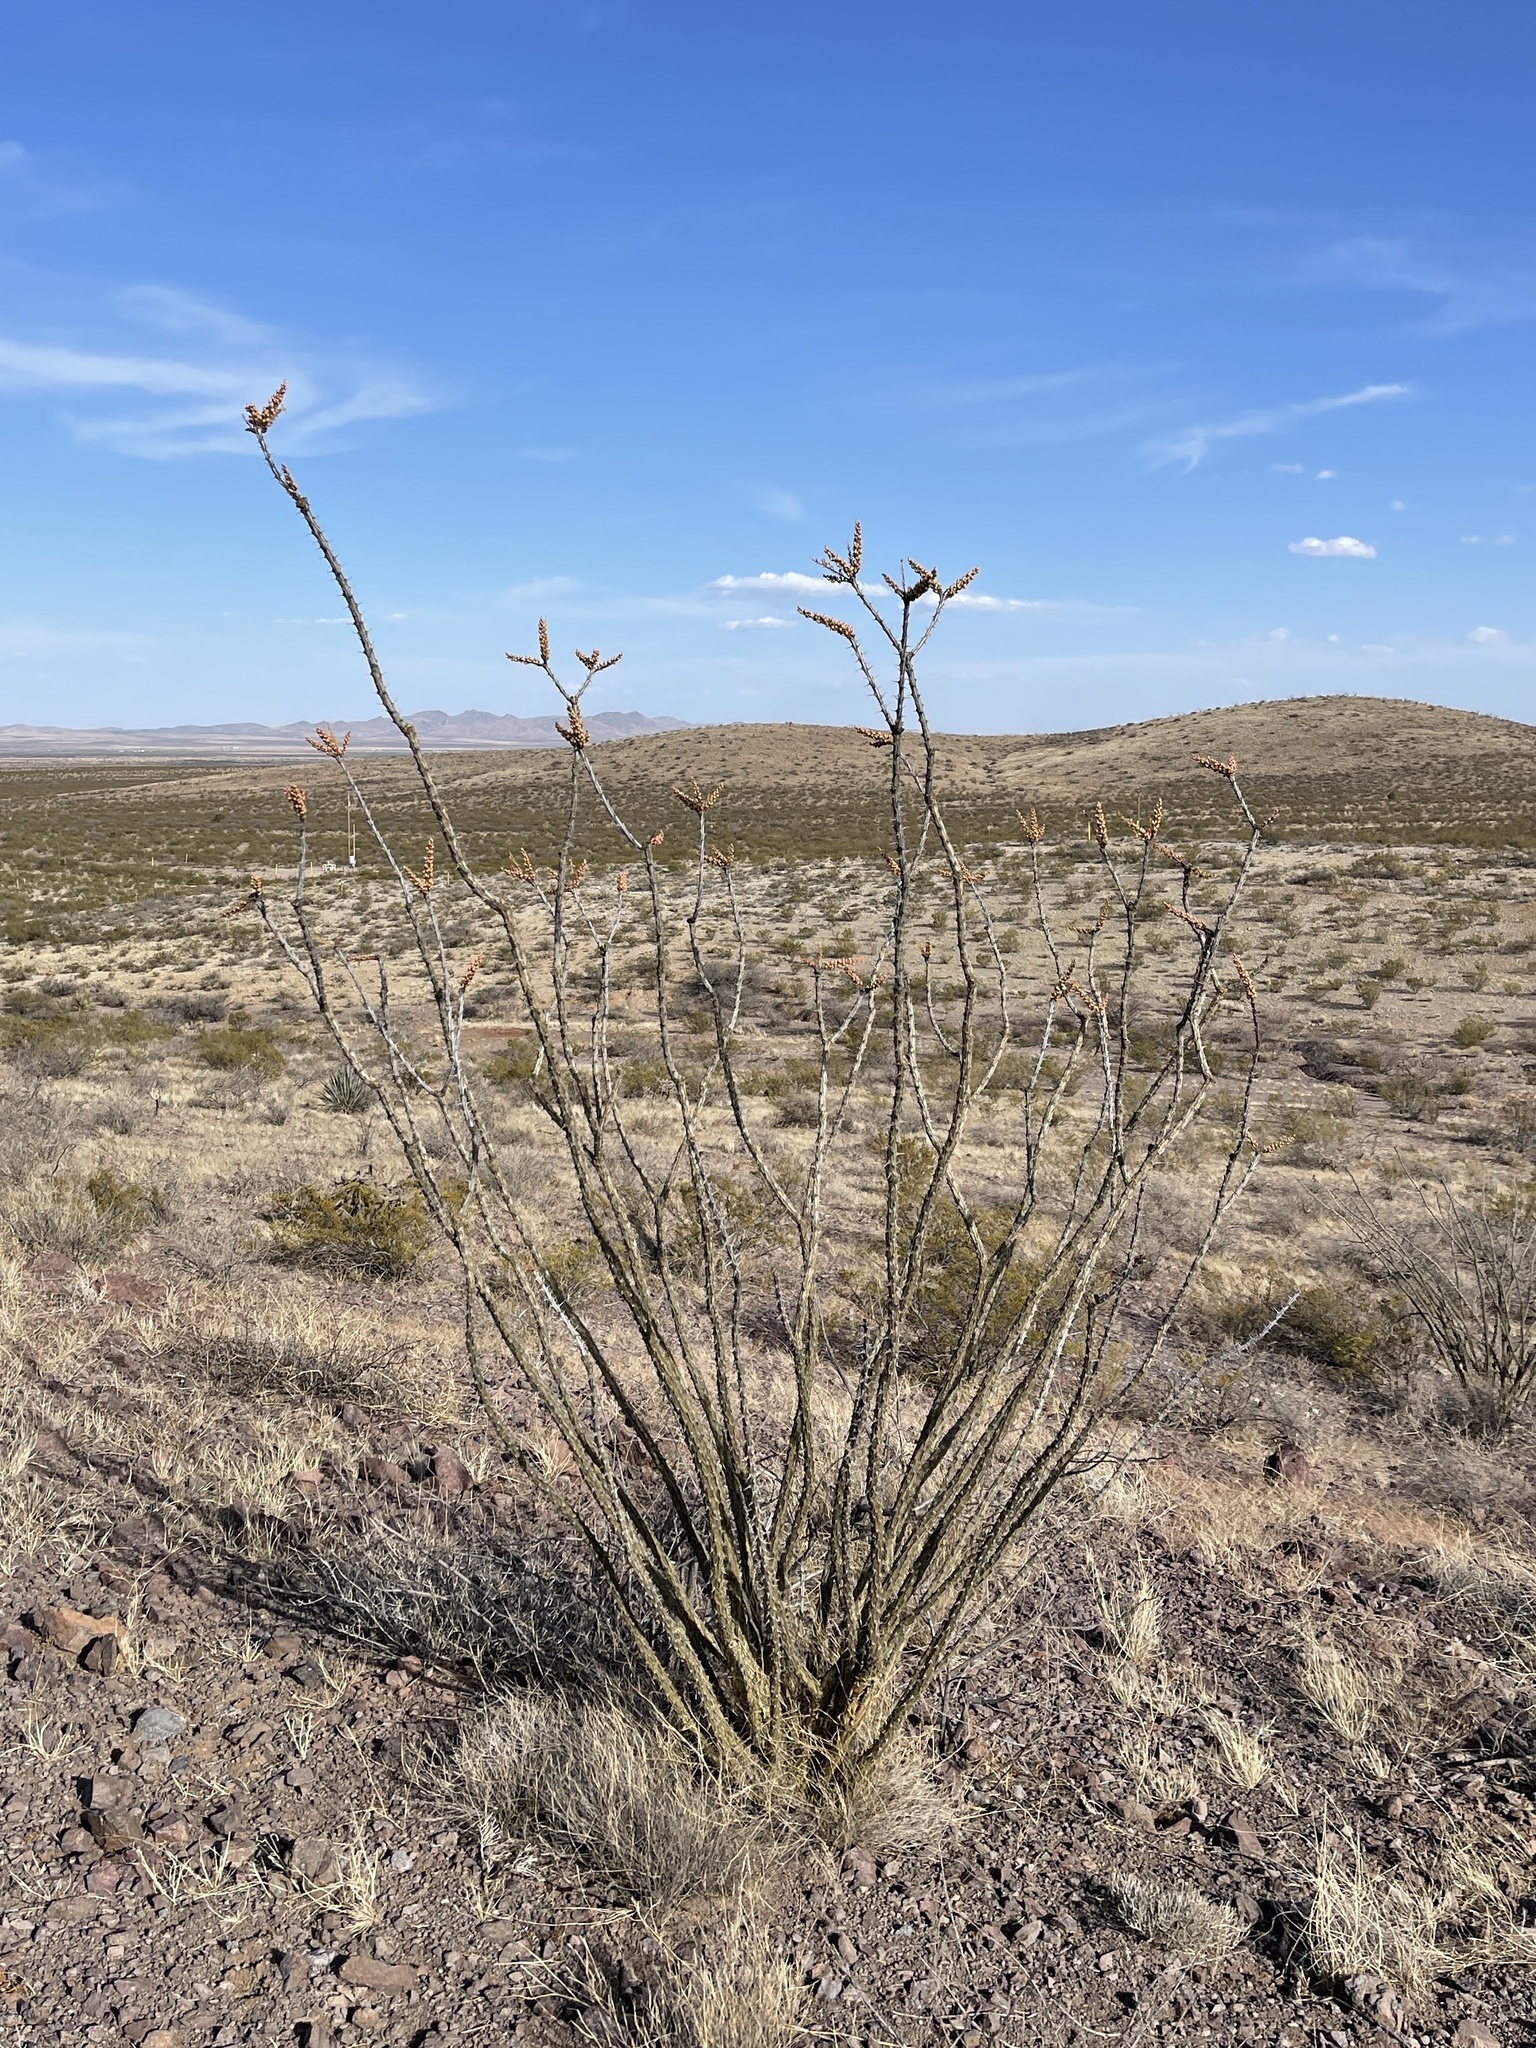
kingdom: Plantae
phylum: Tracheophyta
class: Magnoliopsida
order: Ericales
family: Fouquieriaceae
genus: Fouquieria
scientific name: Fouquieria splendens
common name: Vine-cactus
